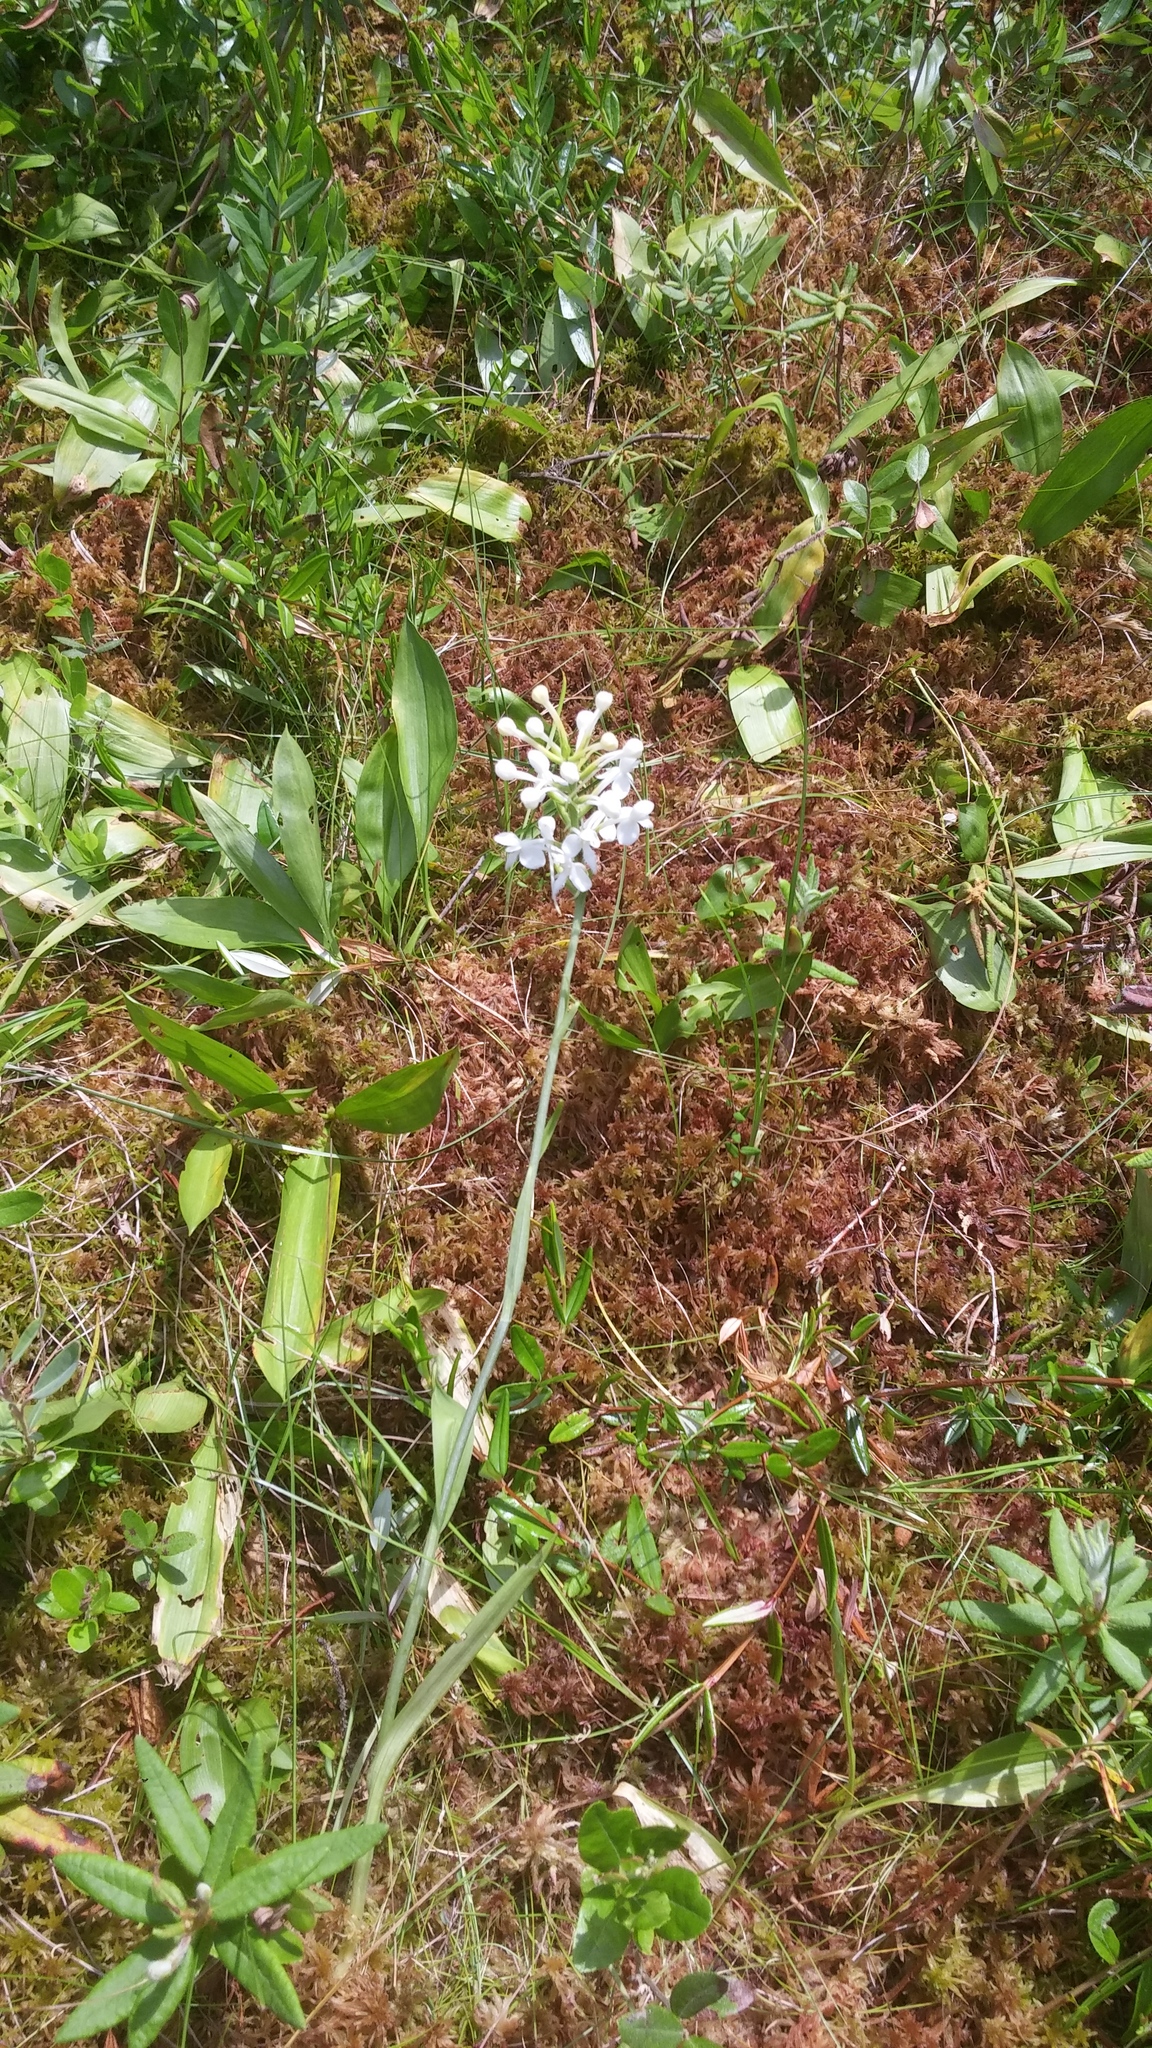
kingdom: Plantae
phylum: Tracheophyta
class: Liliopsida
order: Asparagales
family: Orchidaceae
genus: Platanthera
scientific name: Platanthera blephariglottis
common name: White fringed orchid
